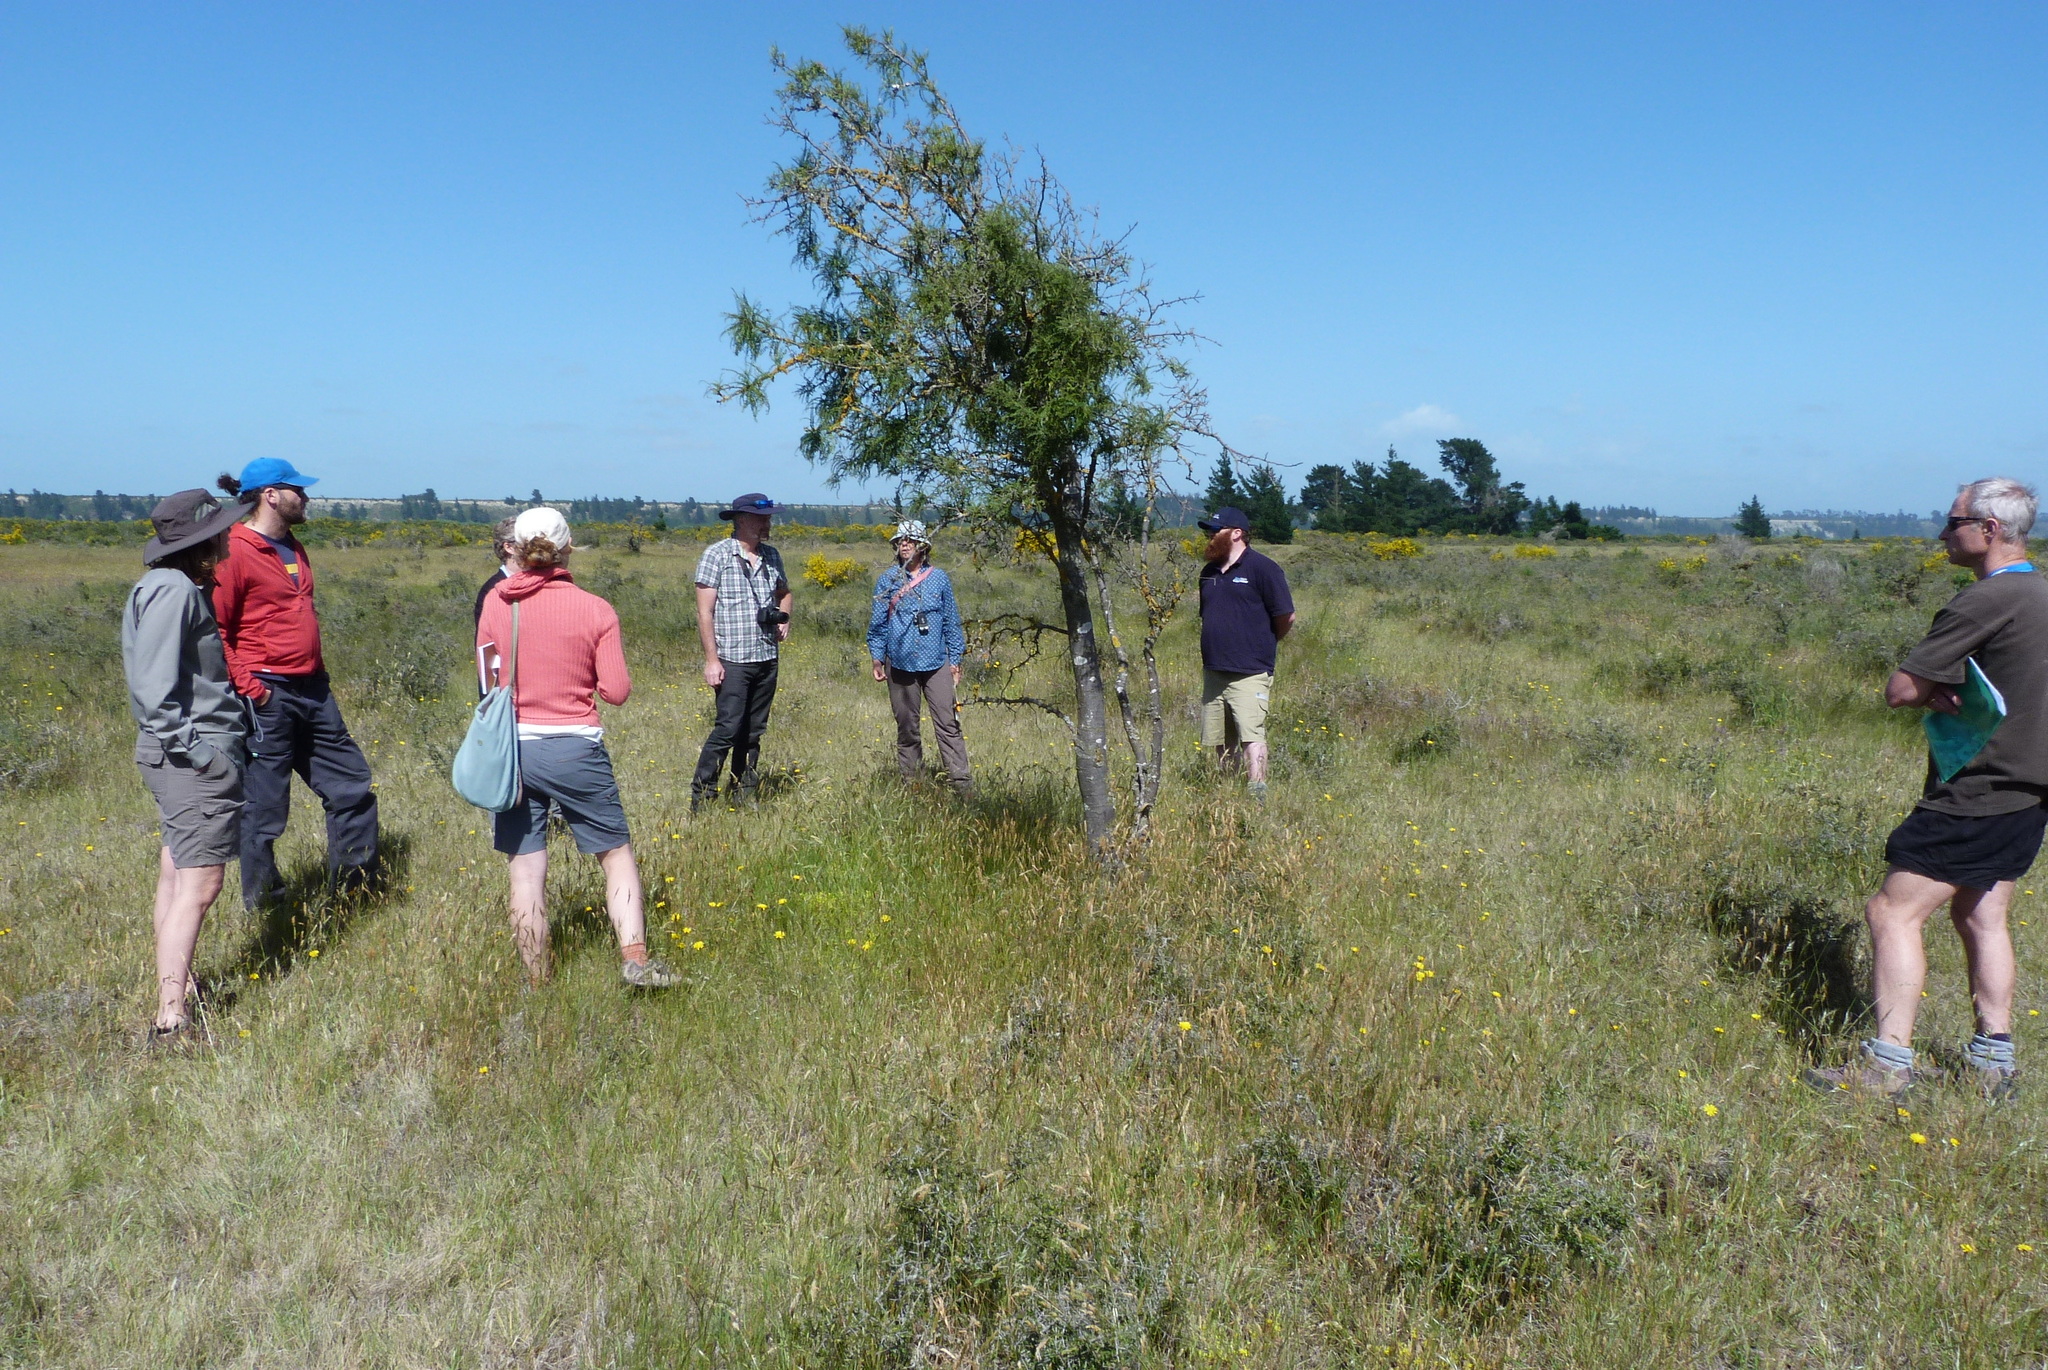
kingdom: Plantae
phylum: Tracheophyta
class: Magnoliopsida
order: Fabales
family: Fabaceae
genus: Sophora
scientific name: Sophora microphylla
